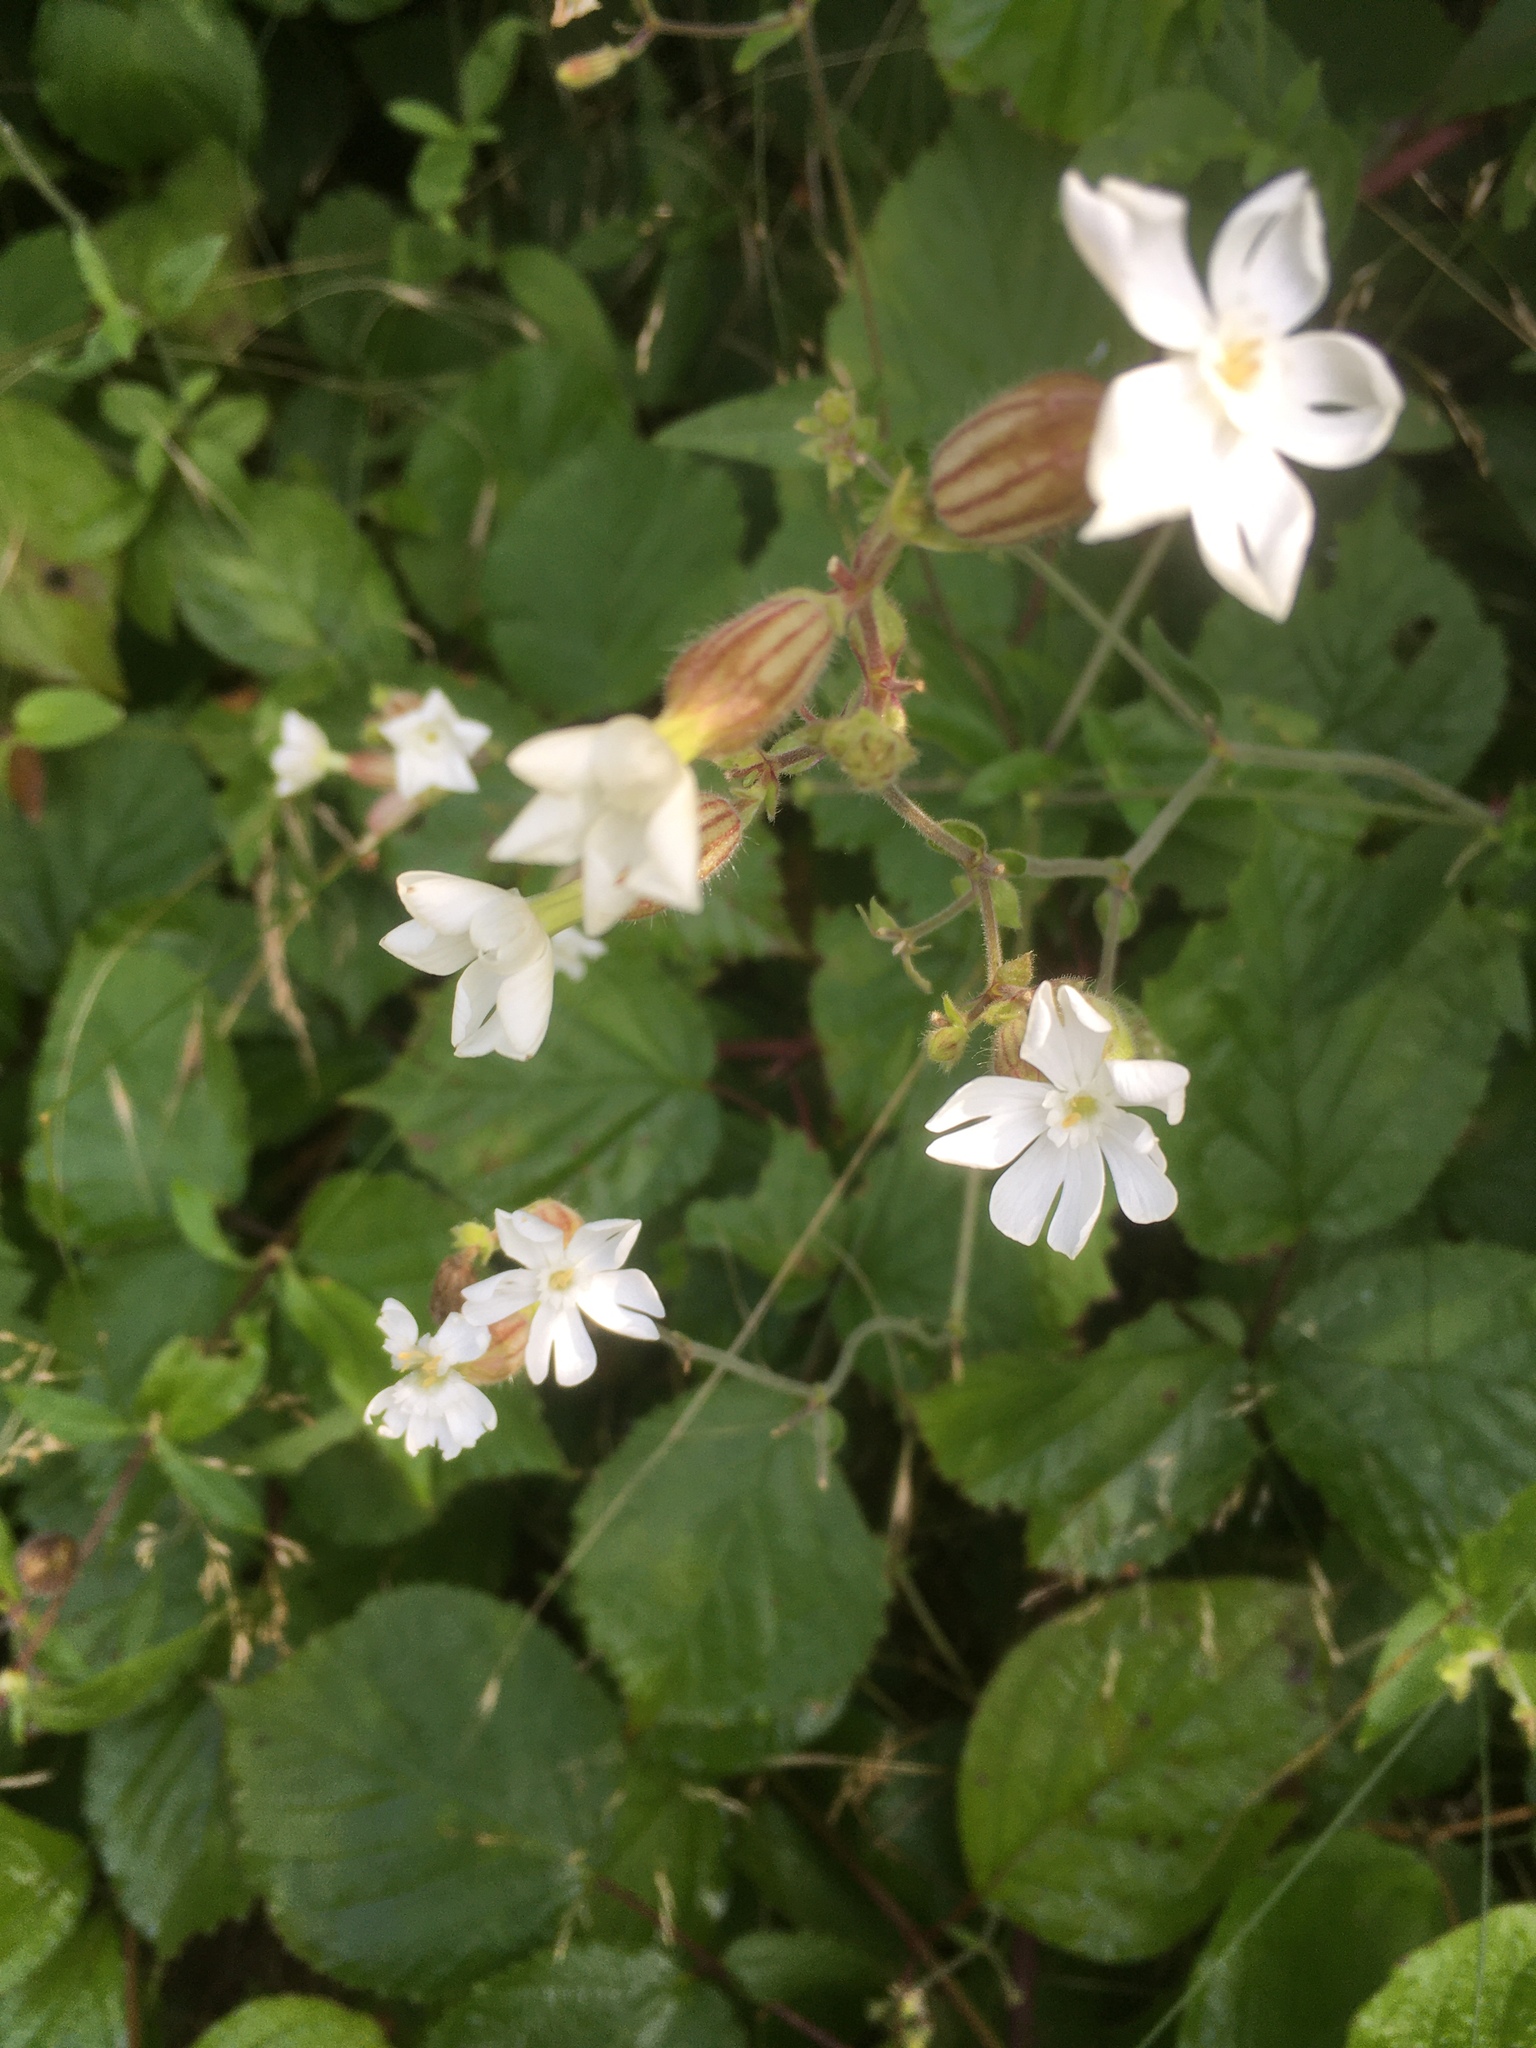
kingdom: Plantae
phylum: Tracheophyta
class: Magnoliopsida
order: Caryophyllales
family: Caryophyllaceae
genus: Silene
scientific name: Silene latifolia
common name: White campion
